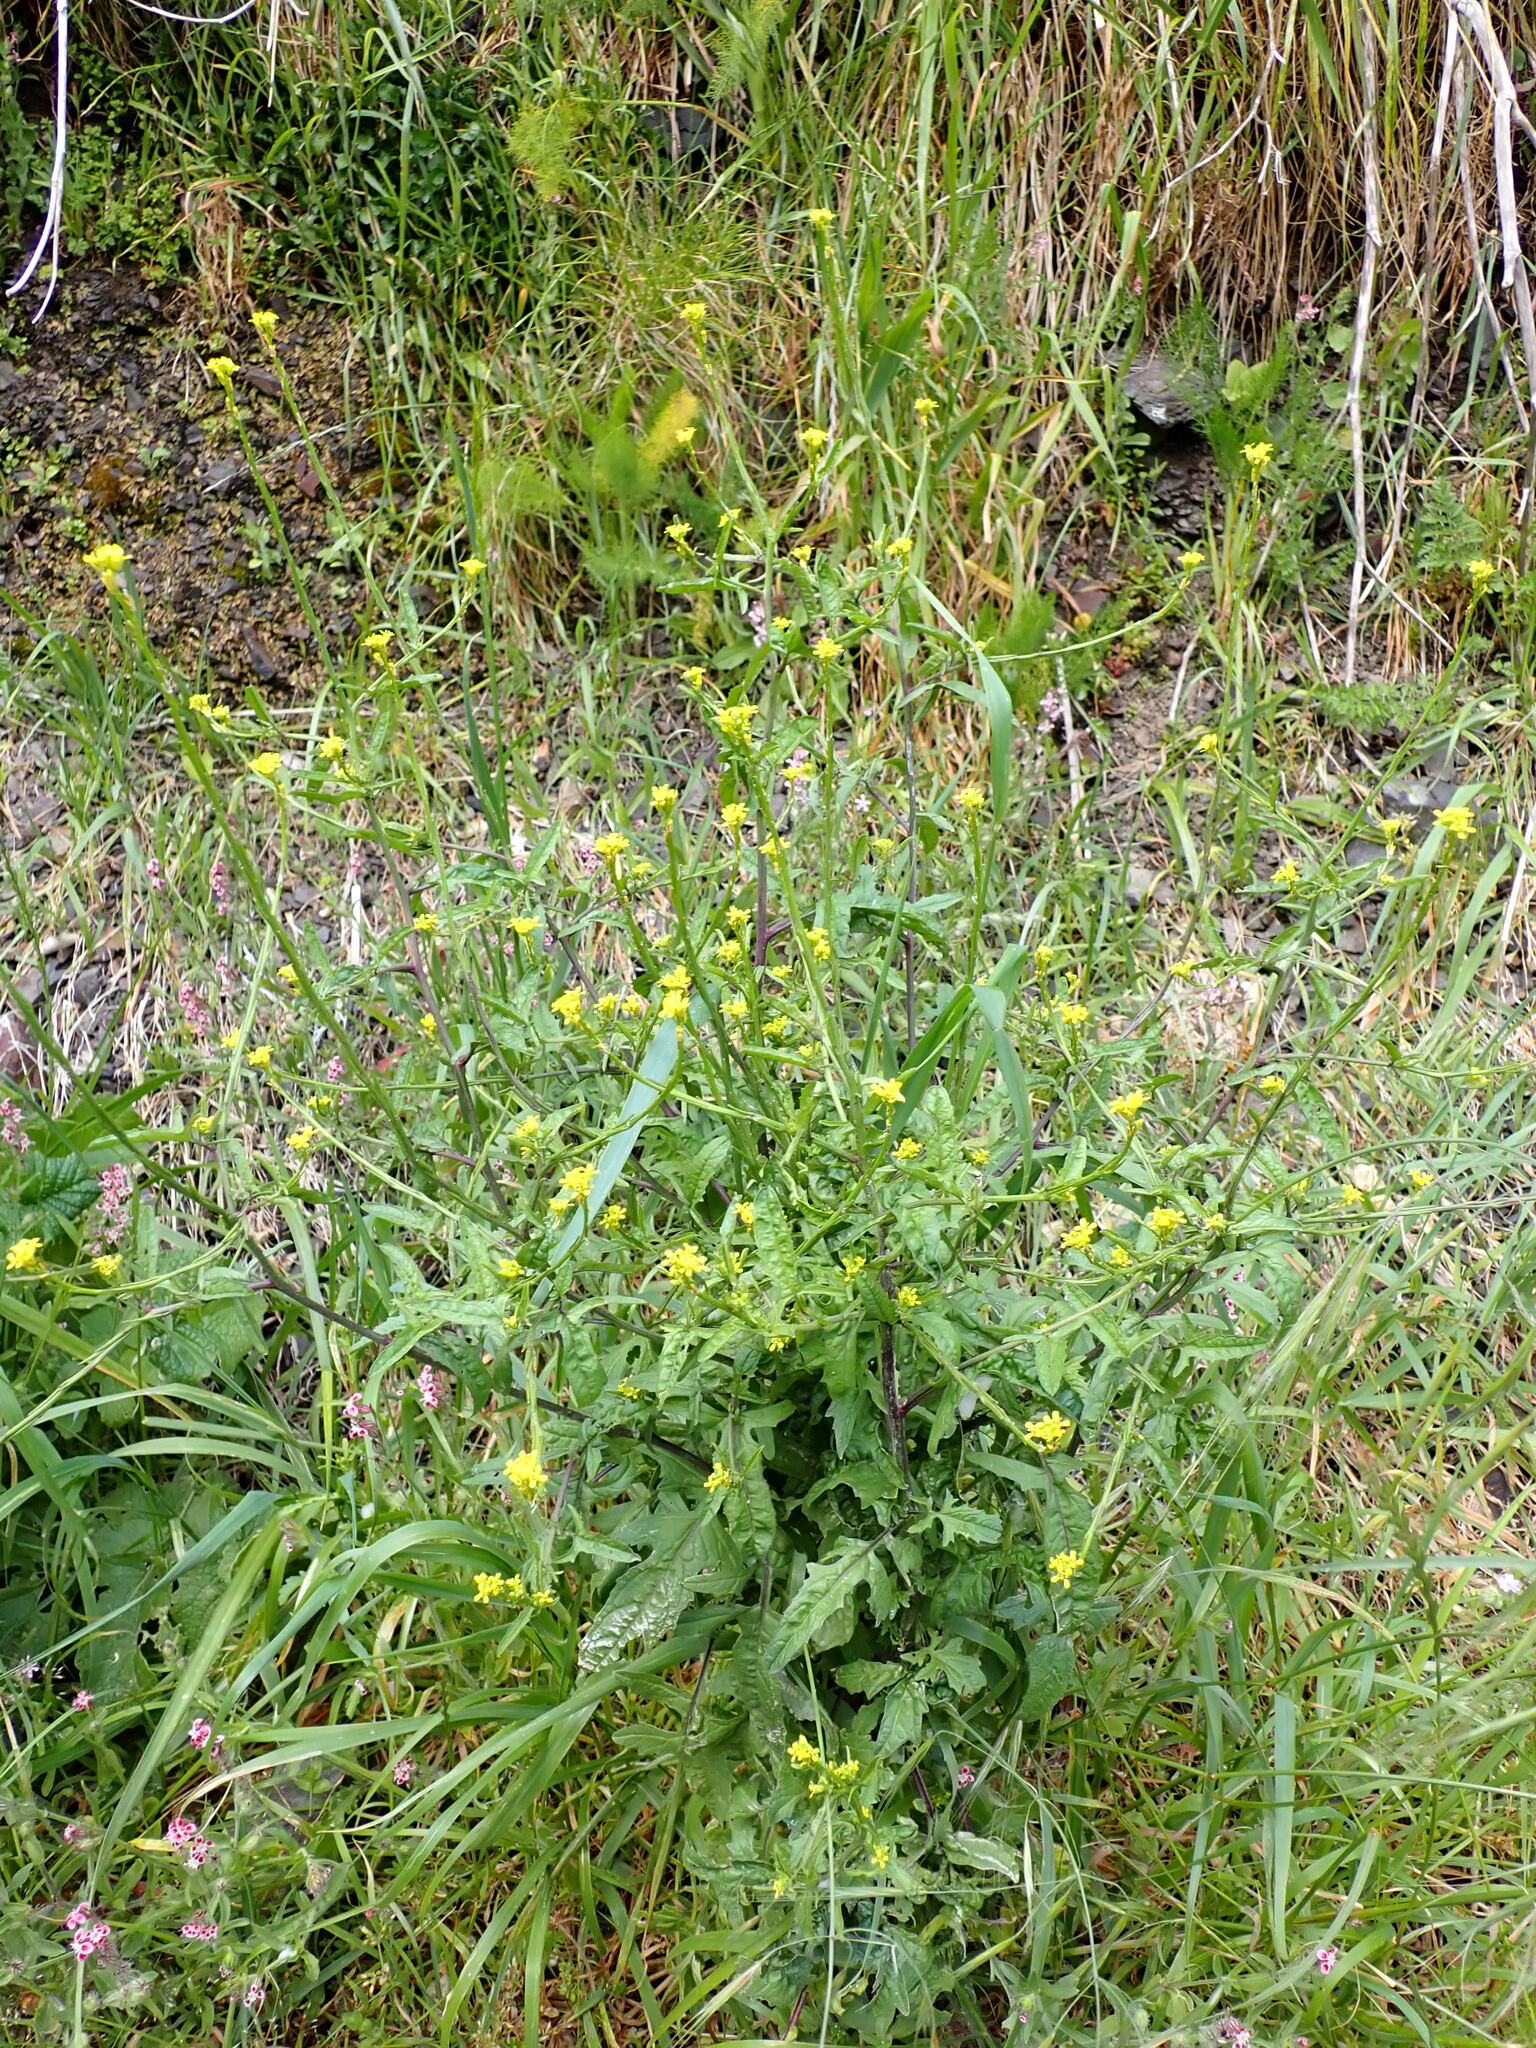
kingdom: Plantae
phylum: Tracheophyta
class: Magnoliopsida
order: Brassicales
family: Brassicaceae
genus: Sisymbrium
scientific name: Sisymbrium officinale
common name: Hedge mustard
